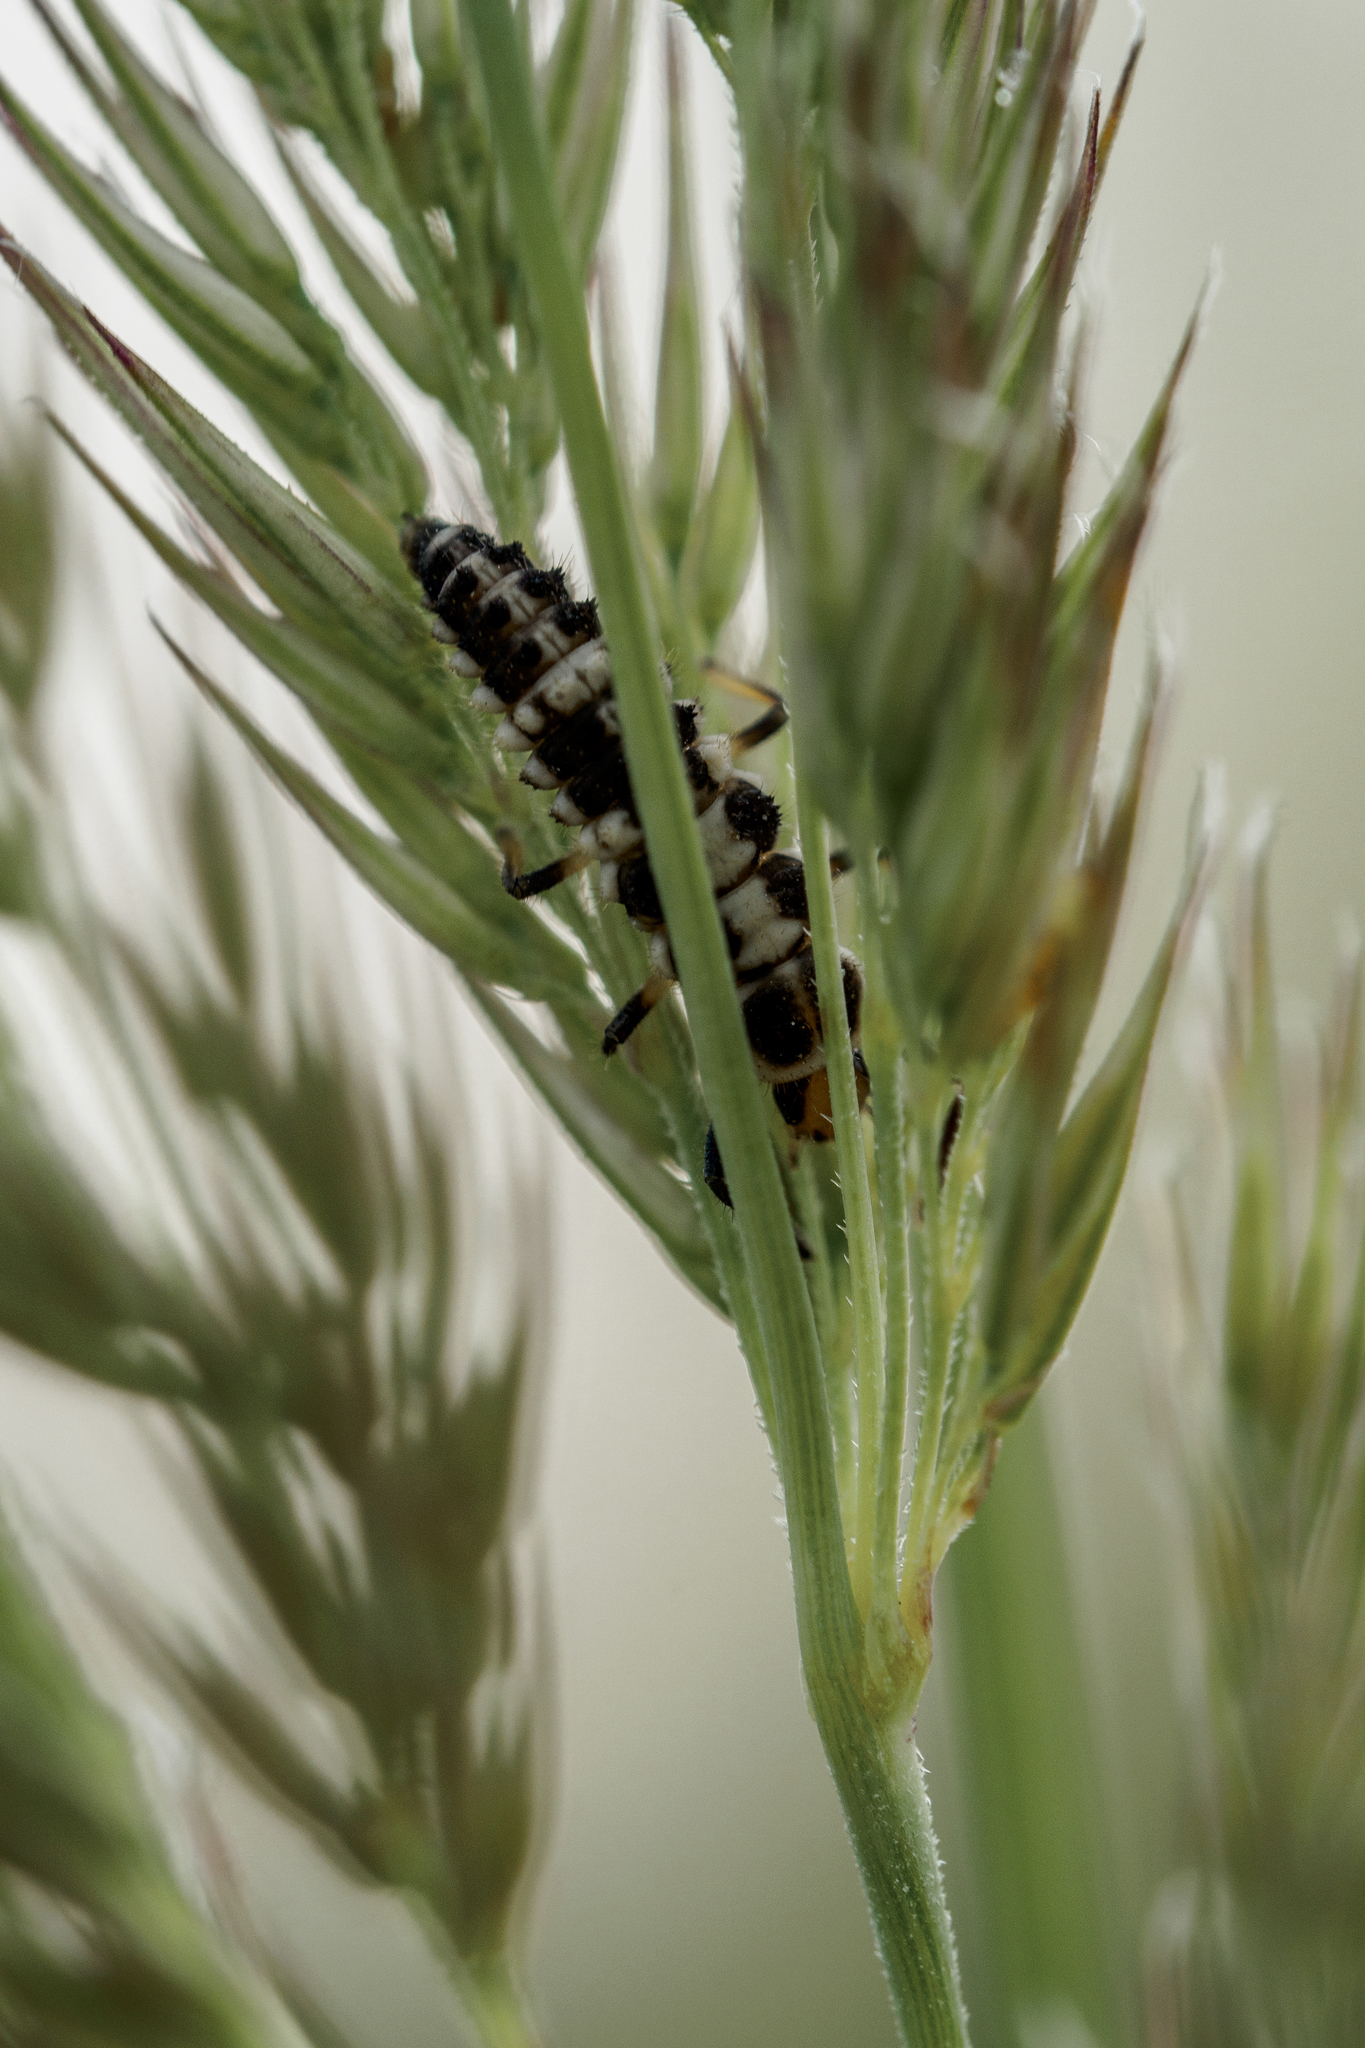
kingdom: Animalia
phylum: Arthropoda
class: Insecta
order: Coleoptera
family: Coccinellidae
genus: Propylaea
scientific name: Propylaea quatuordecimpunctata
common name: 14-spotted ladybird beetle
